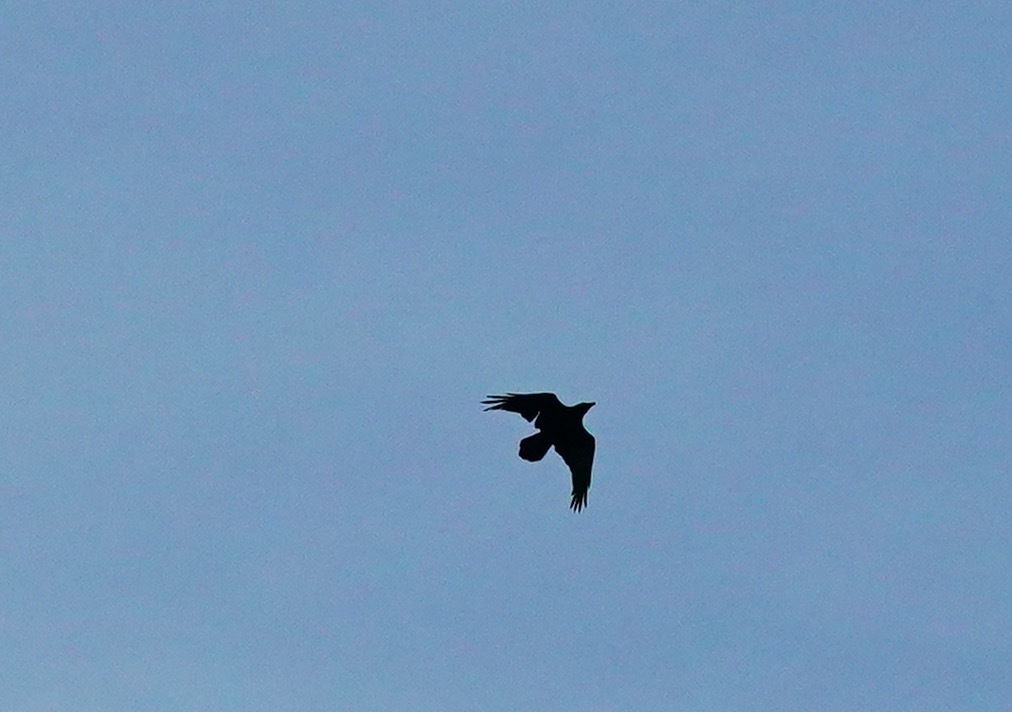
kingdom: Animalia
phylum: Chordata
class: Aves
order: Passeriformes
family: Corvidae
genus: Corvus
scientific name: Corvus corax
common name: Common raven
